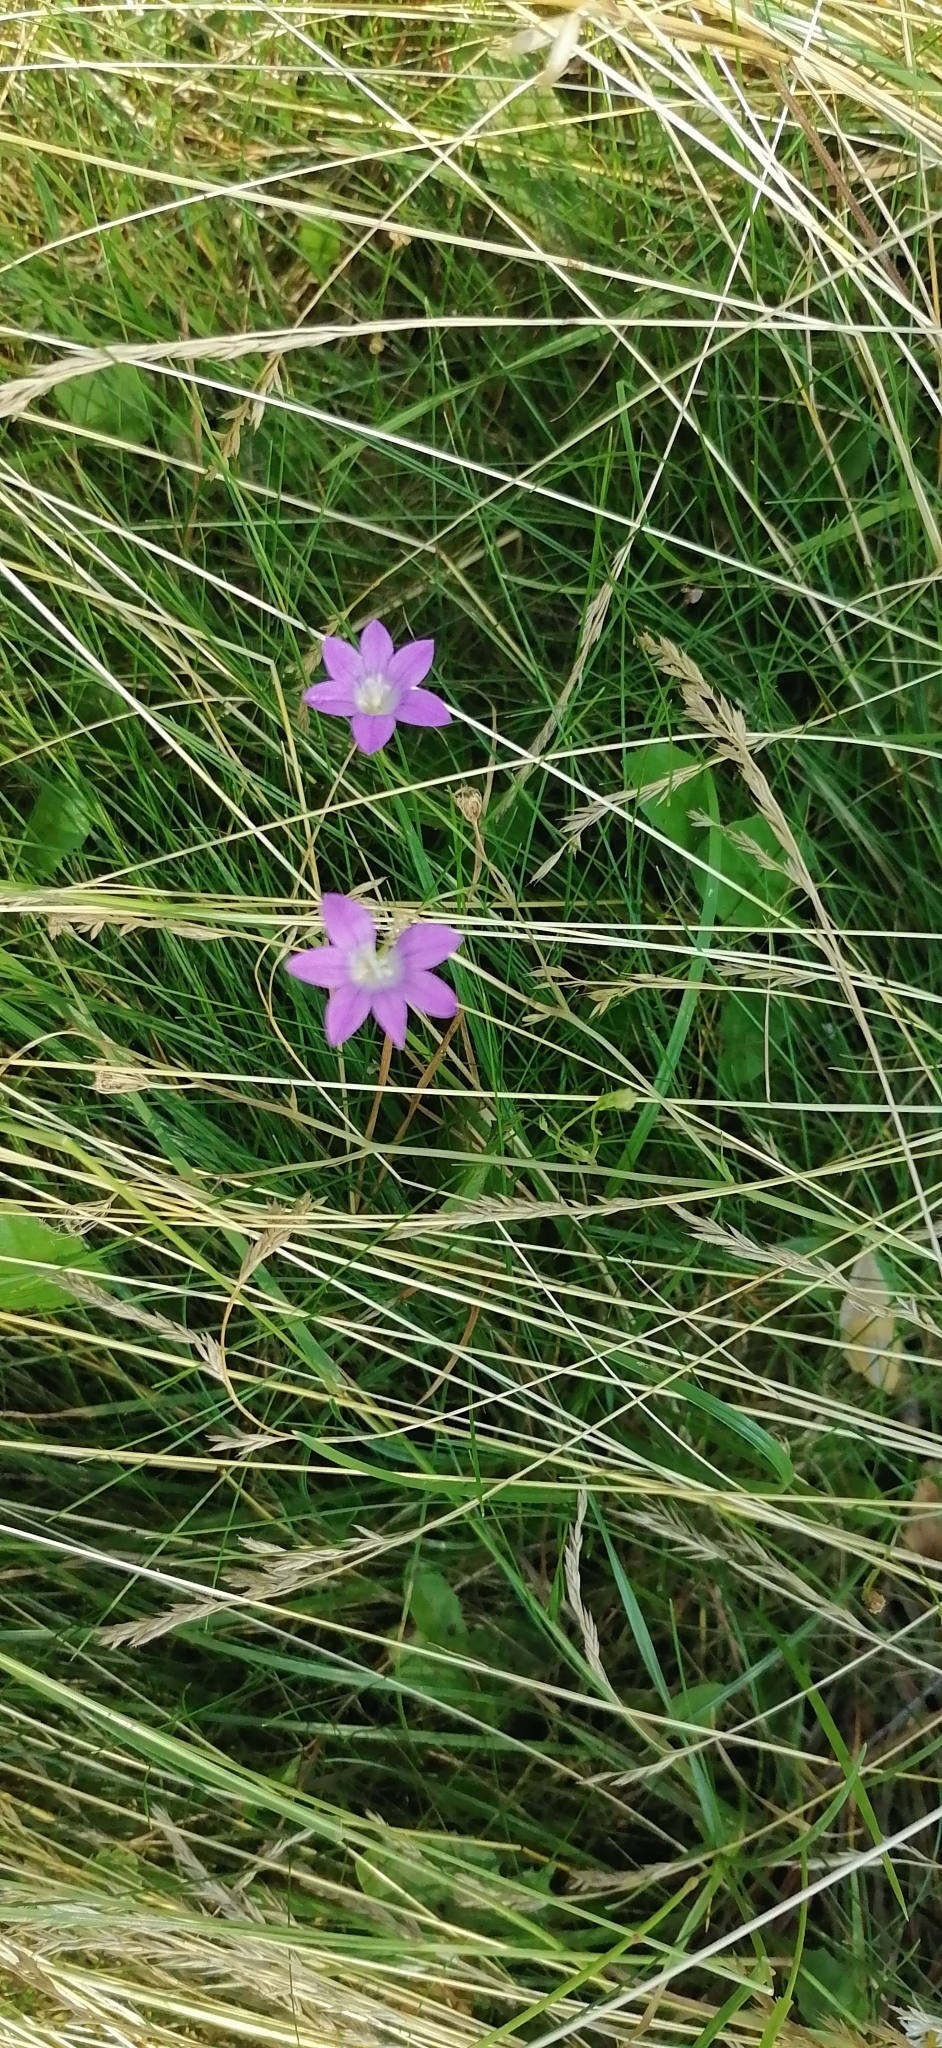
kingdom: Plantae
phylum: Tracheophyta
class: Magnoliopsida
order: Asterales
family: Campanulaceae
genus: Campanula
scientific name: Campanula patula
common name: Spreading bellflower
